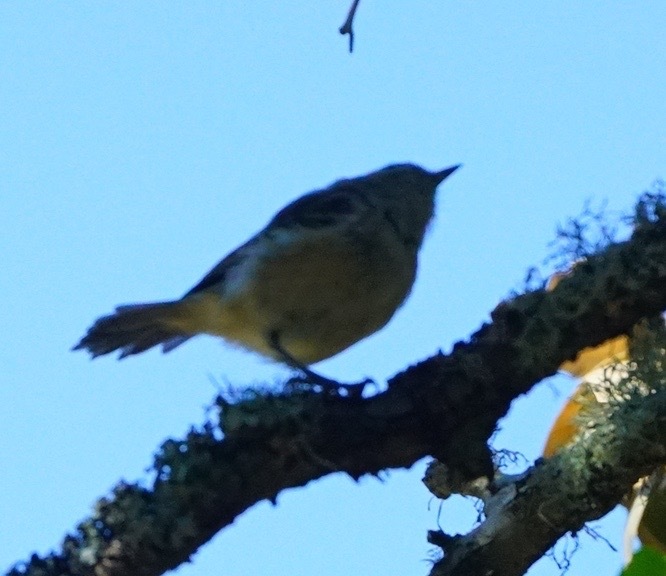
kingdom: Animalia
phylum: Chordata
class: Aves
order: Passeriformes
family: Vireonidae
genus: Vireo
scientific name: Vireo huttoni
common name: Hutton's vireo
